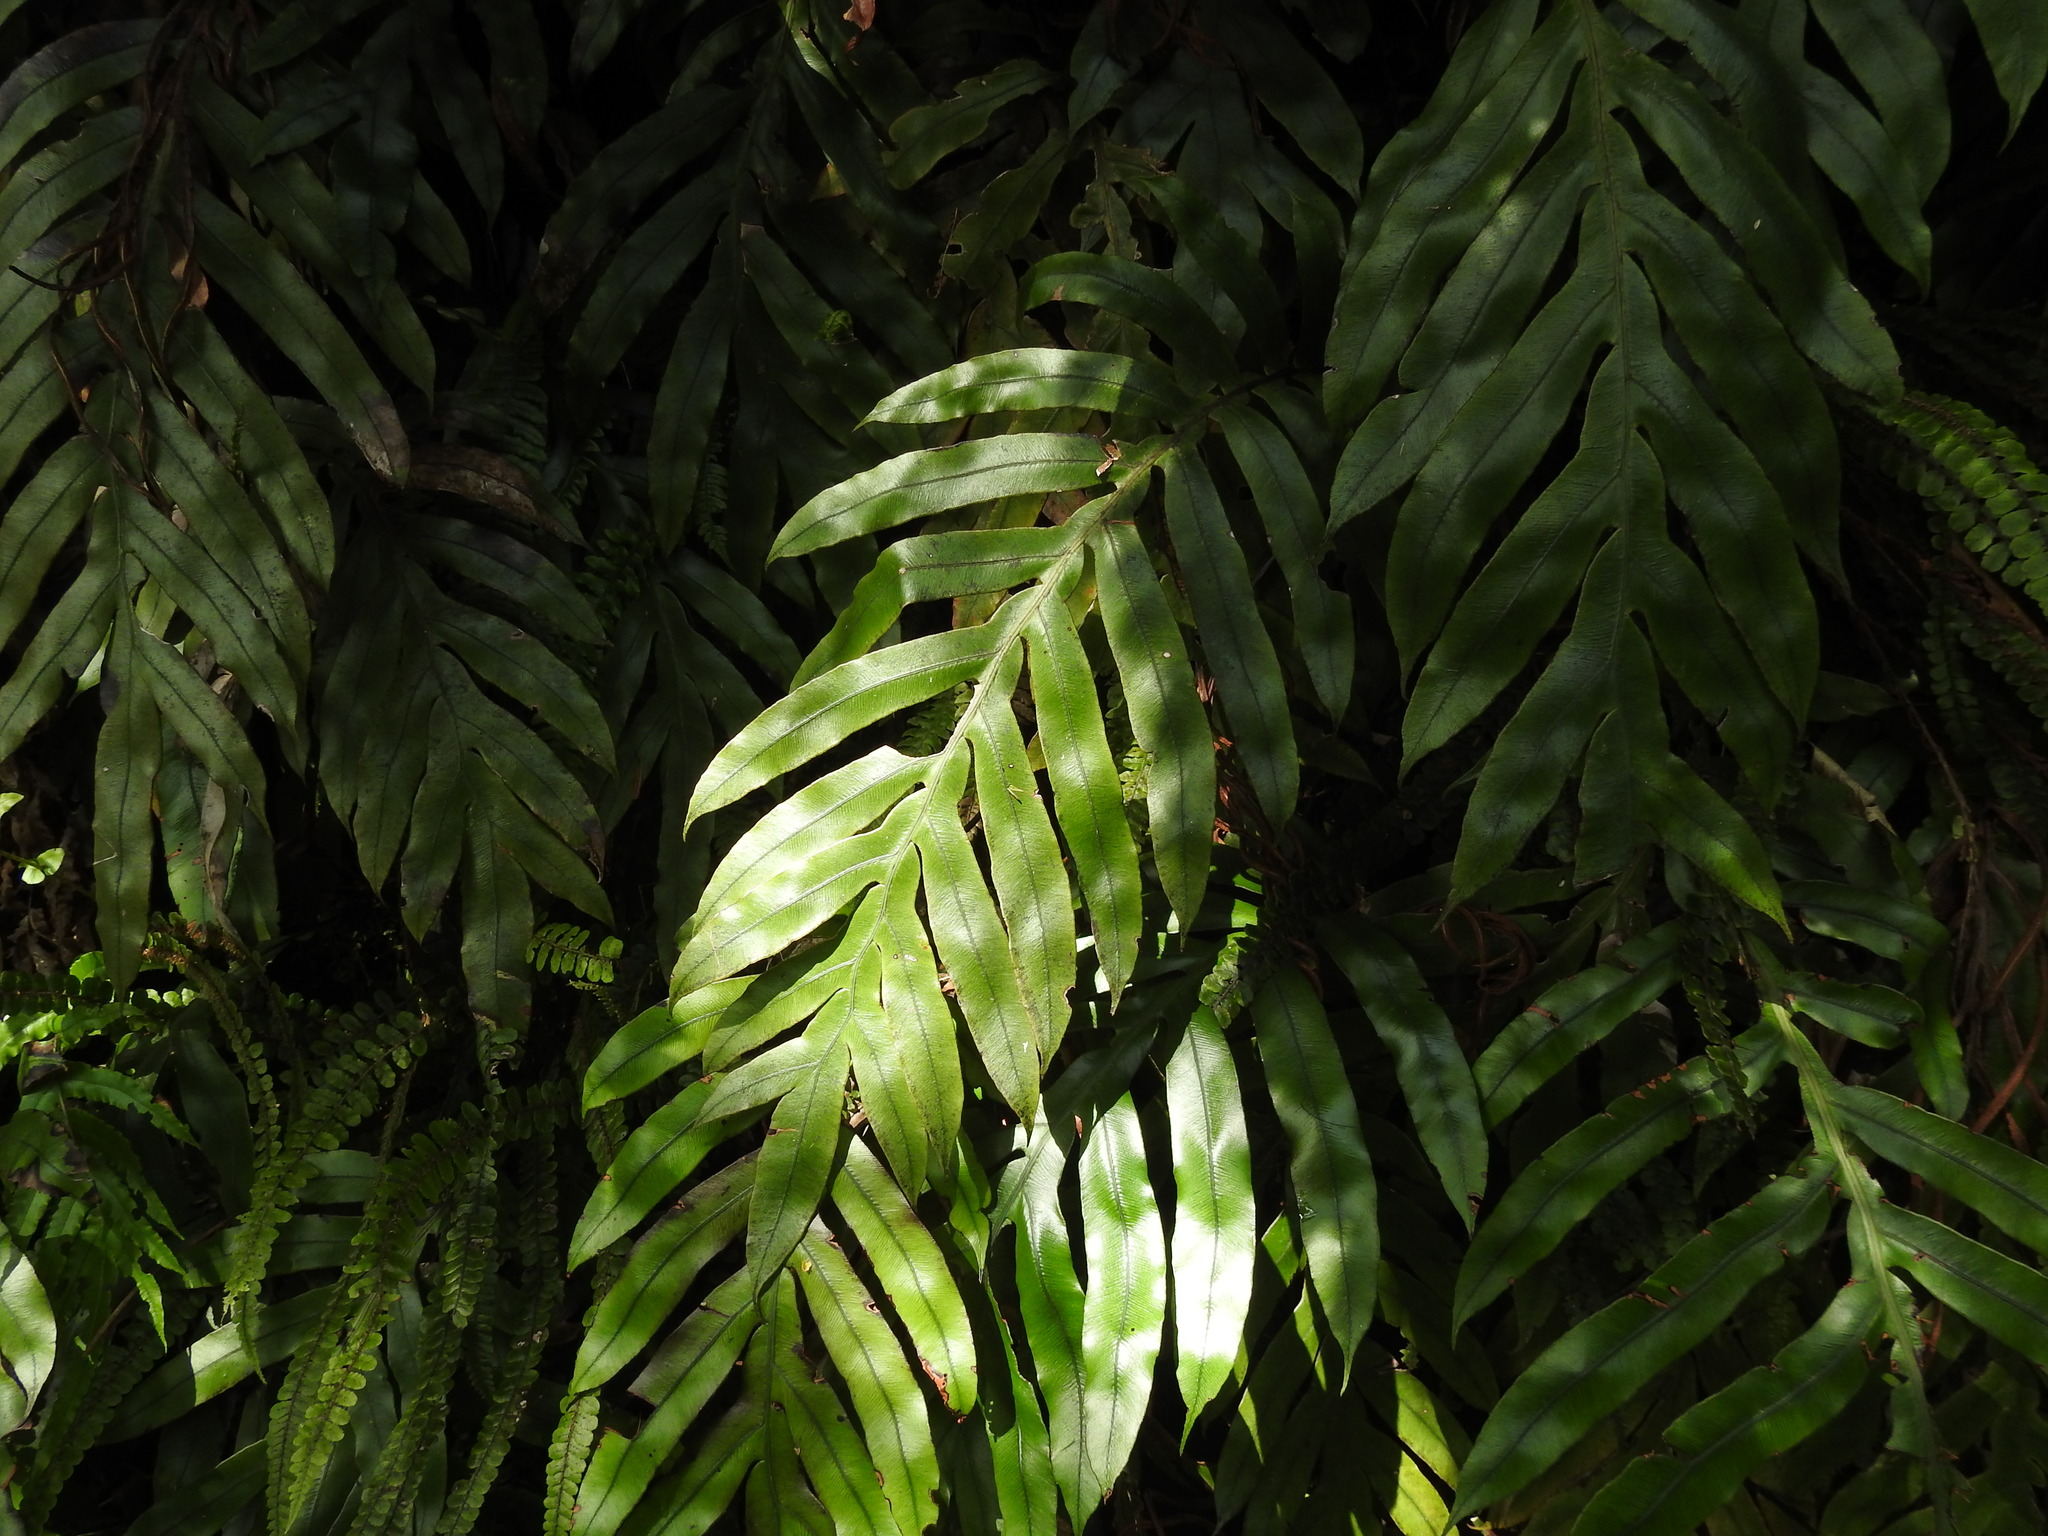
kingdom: Plantae
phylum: Tracheophyta
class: Polypodiopsida
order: Polypodiales
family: Blechnaceae
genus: Austroblechnum
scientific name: Austroblechnum colensoi
